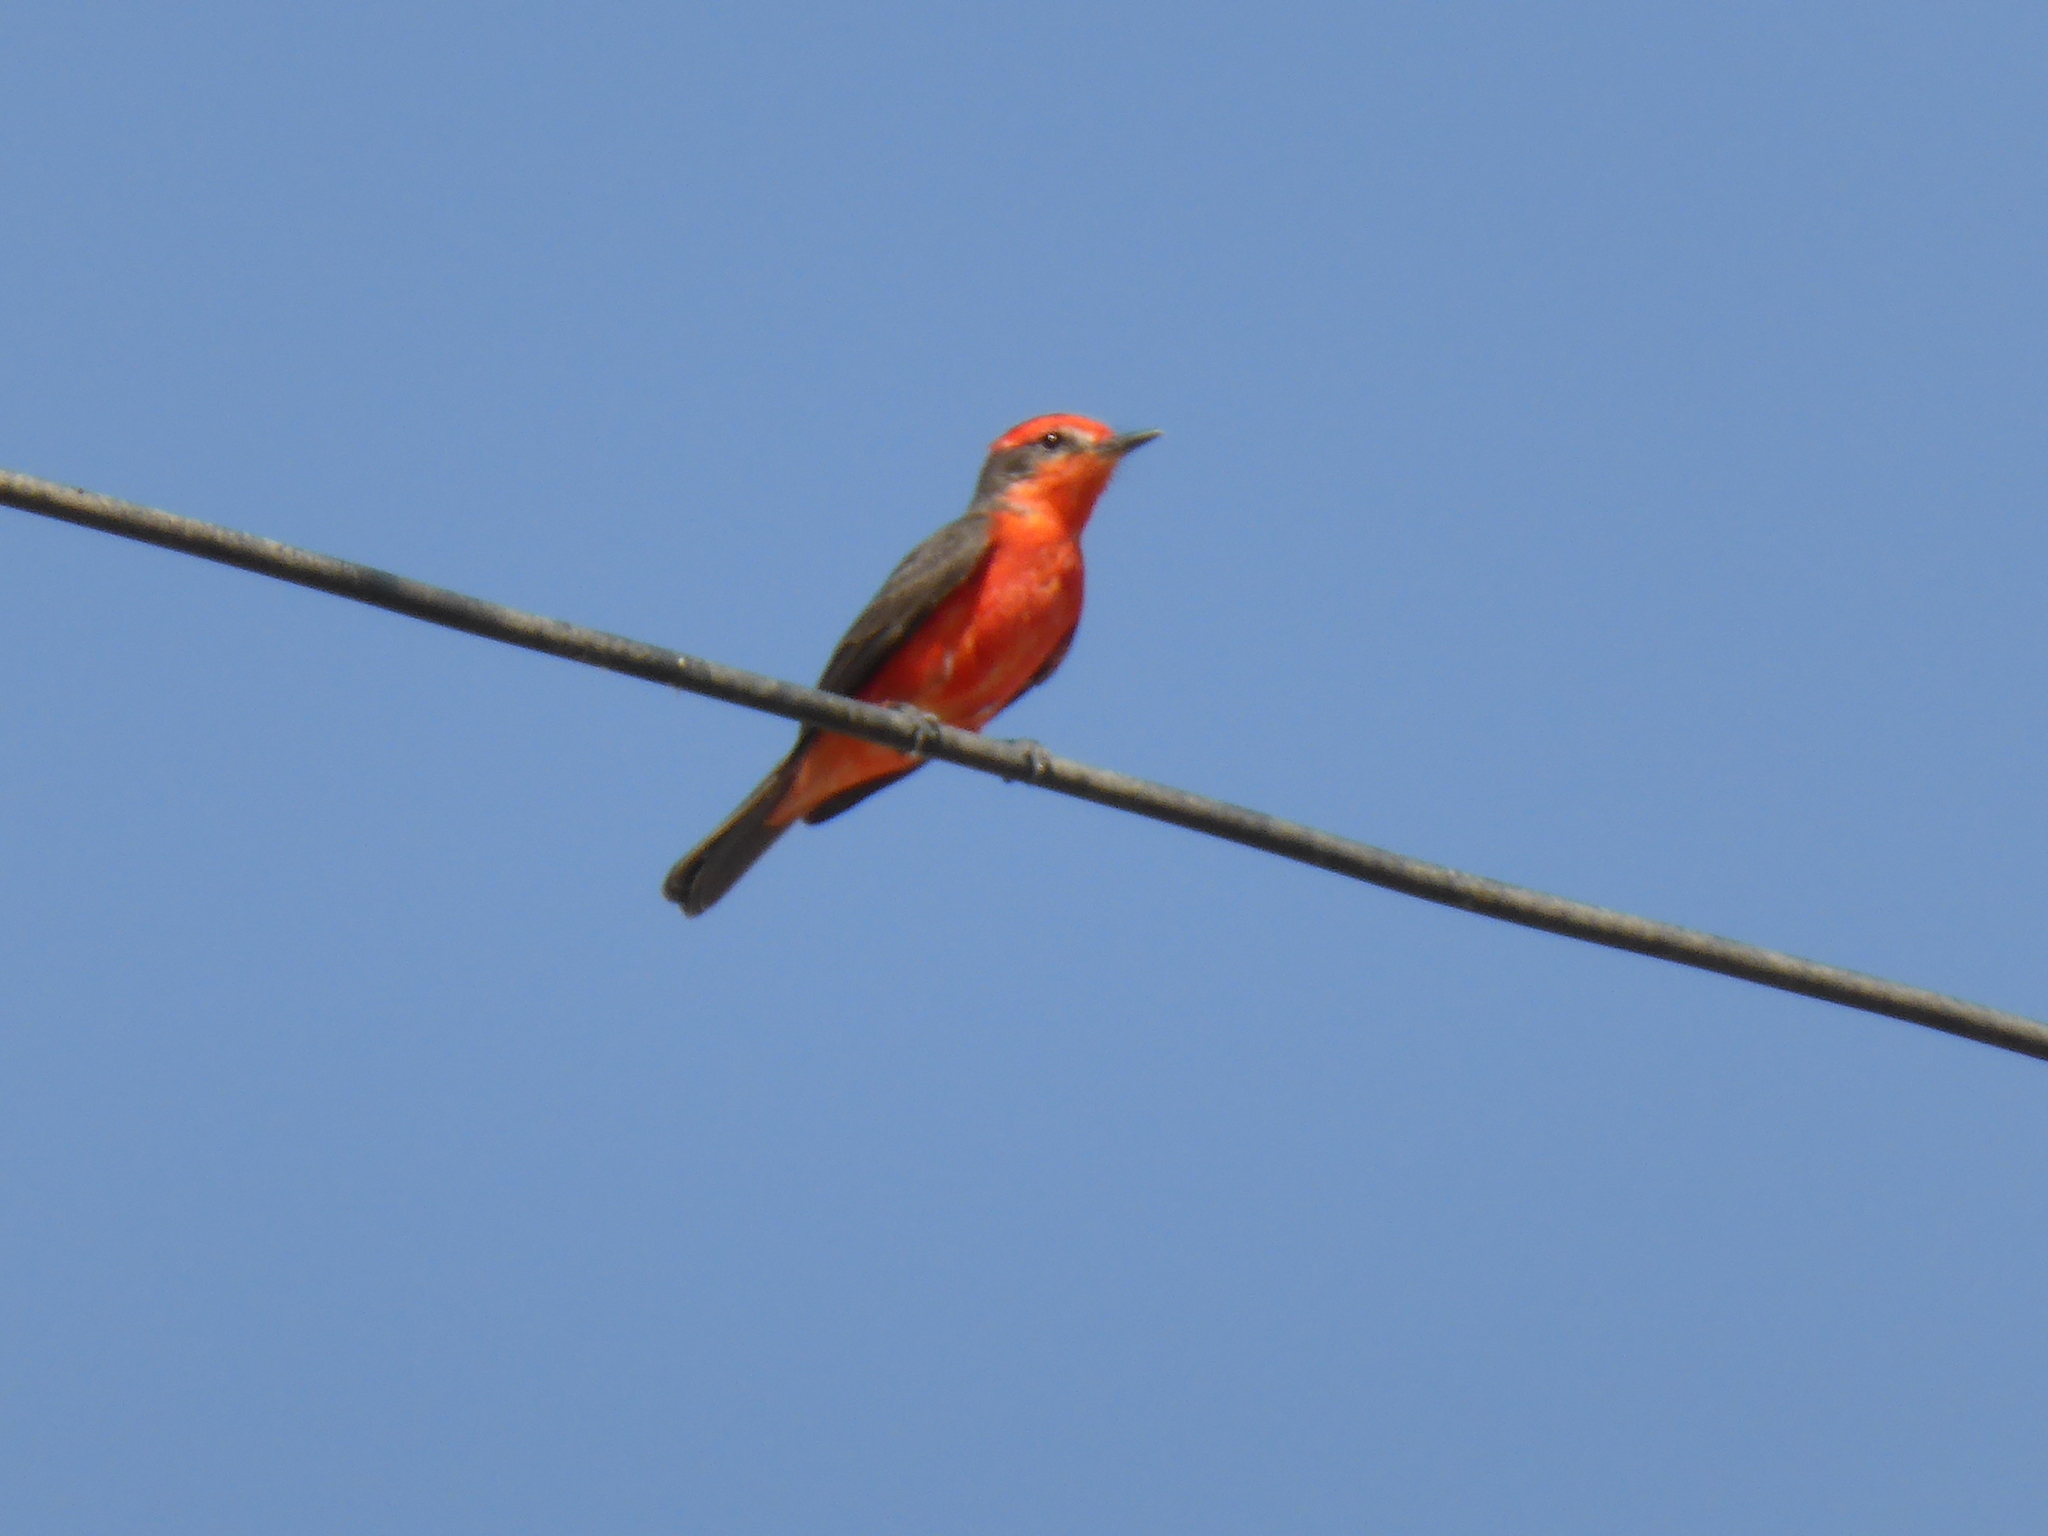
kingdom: Animalia
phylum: Chordata
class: Aves
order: Passeriformes
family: Tyrannidae
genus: Pyrocephalus
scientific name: Pyrocephalus rubinus
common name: Vermilion flycatcher
